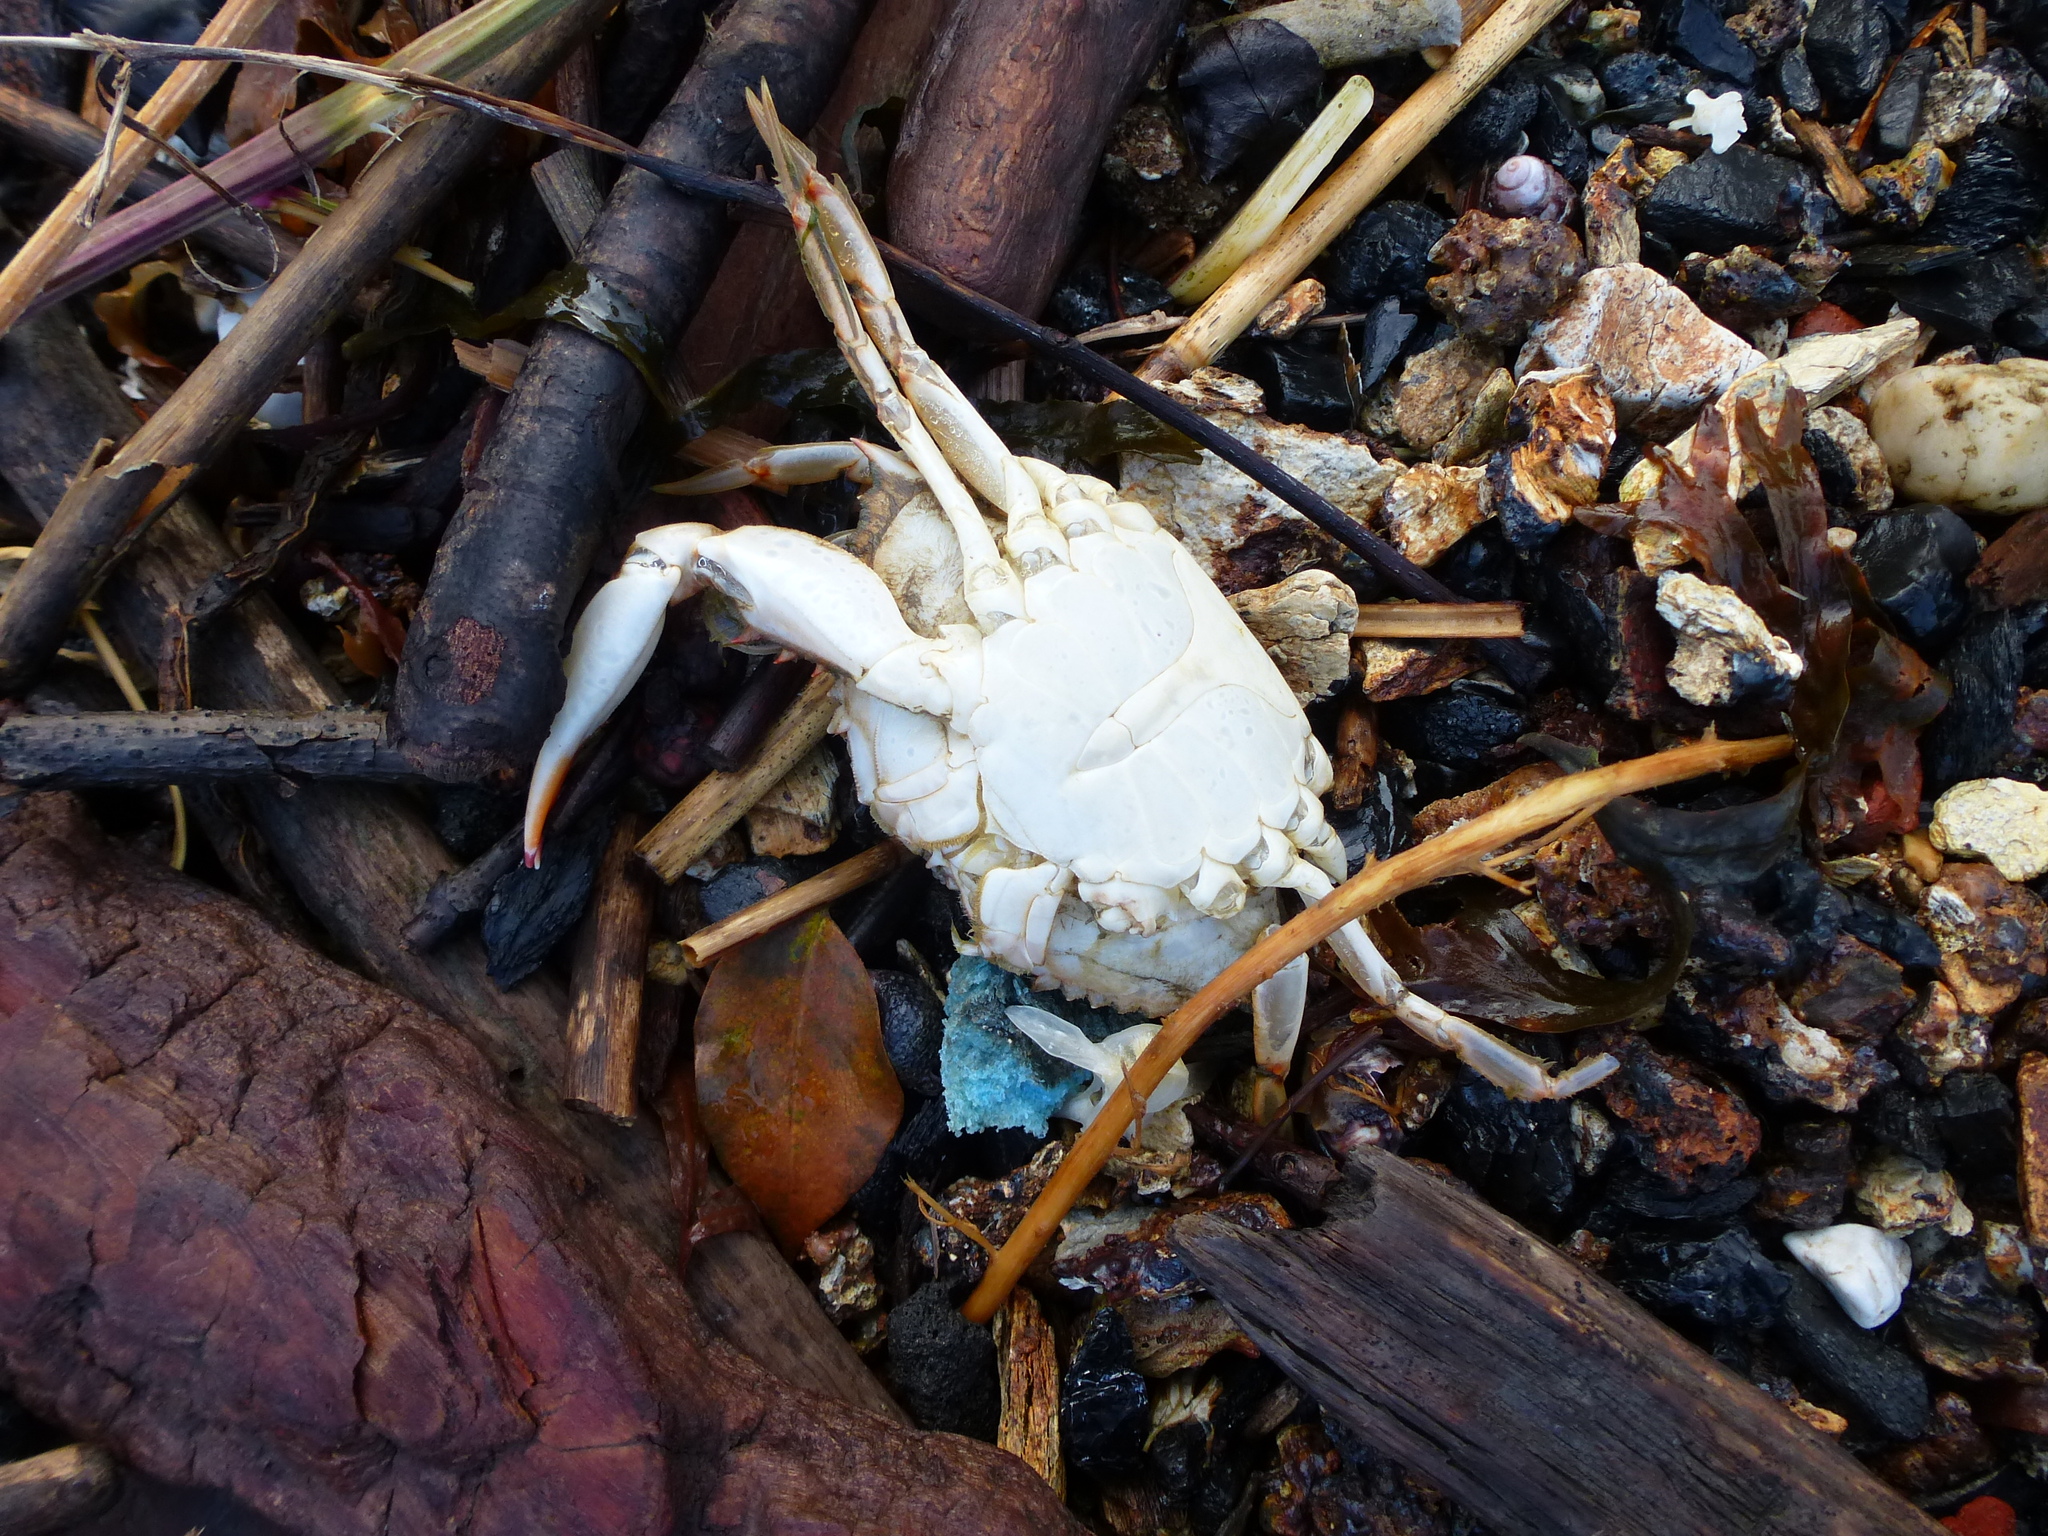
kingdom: Animalia
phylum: Arthropoda
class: Malacostraca
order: Decapoda
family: Portunidae
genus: Callinectes
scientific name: Callinectes sapidus
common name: Blue crab
